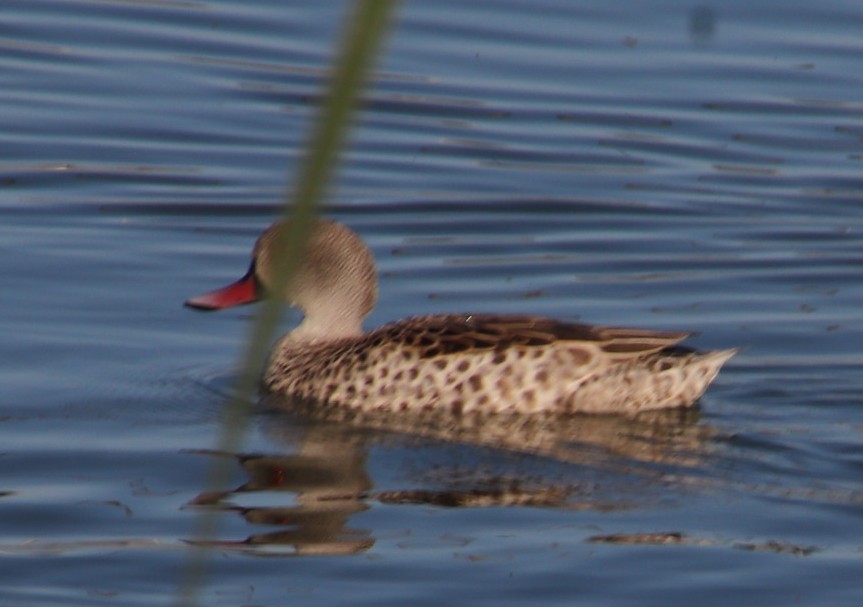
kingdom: Animalia
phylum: Chordata
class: Aves
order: Anseriformes
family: Anatidae
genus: Anas
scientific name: Anas capensis
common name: Cape teal
